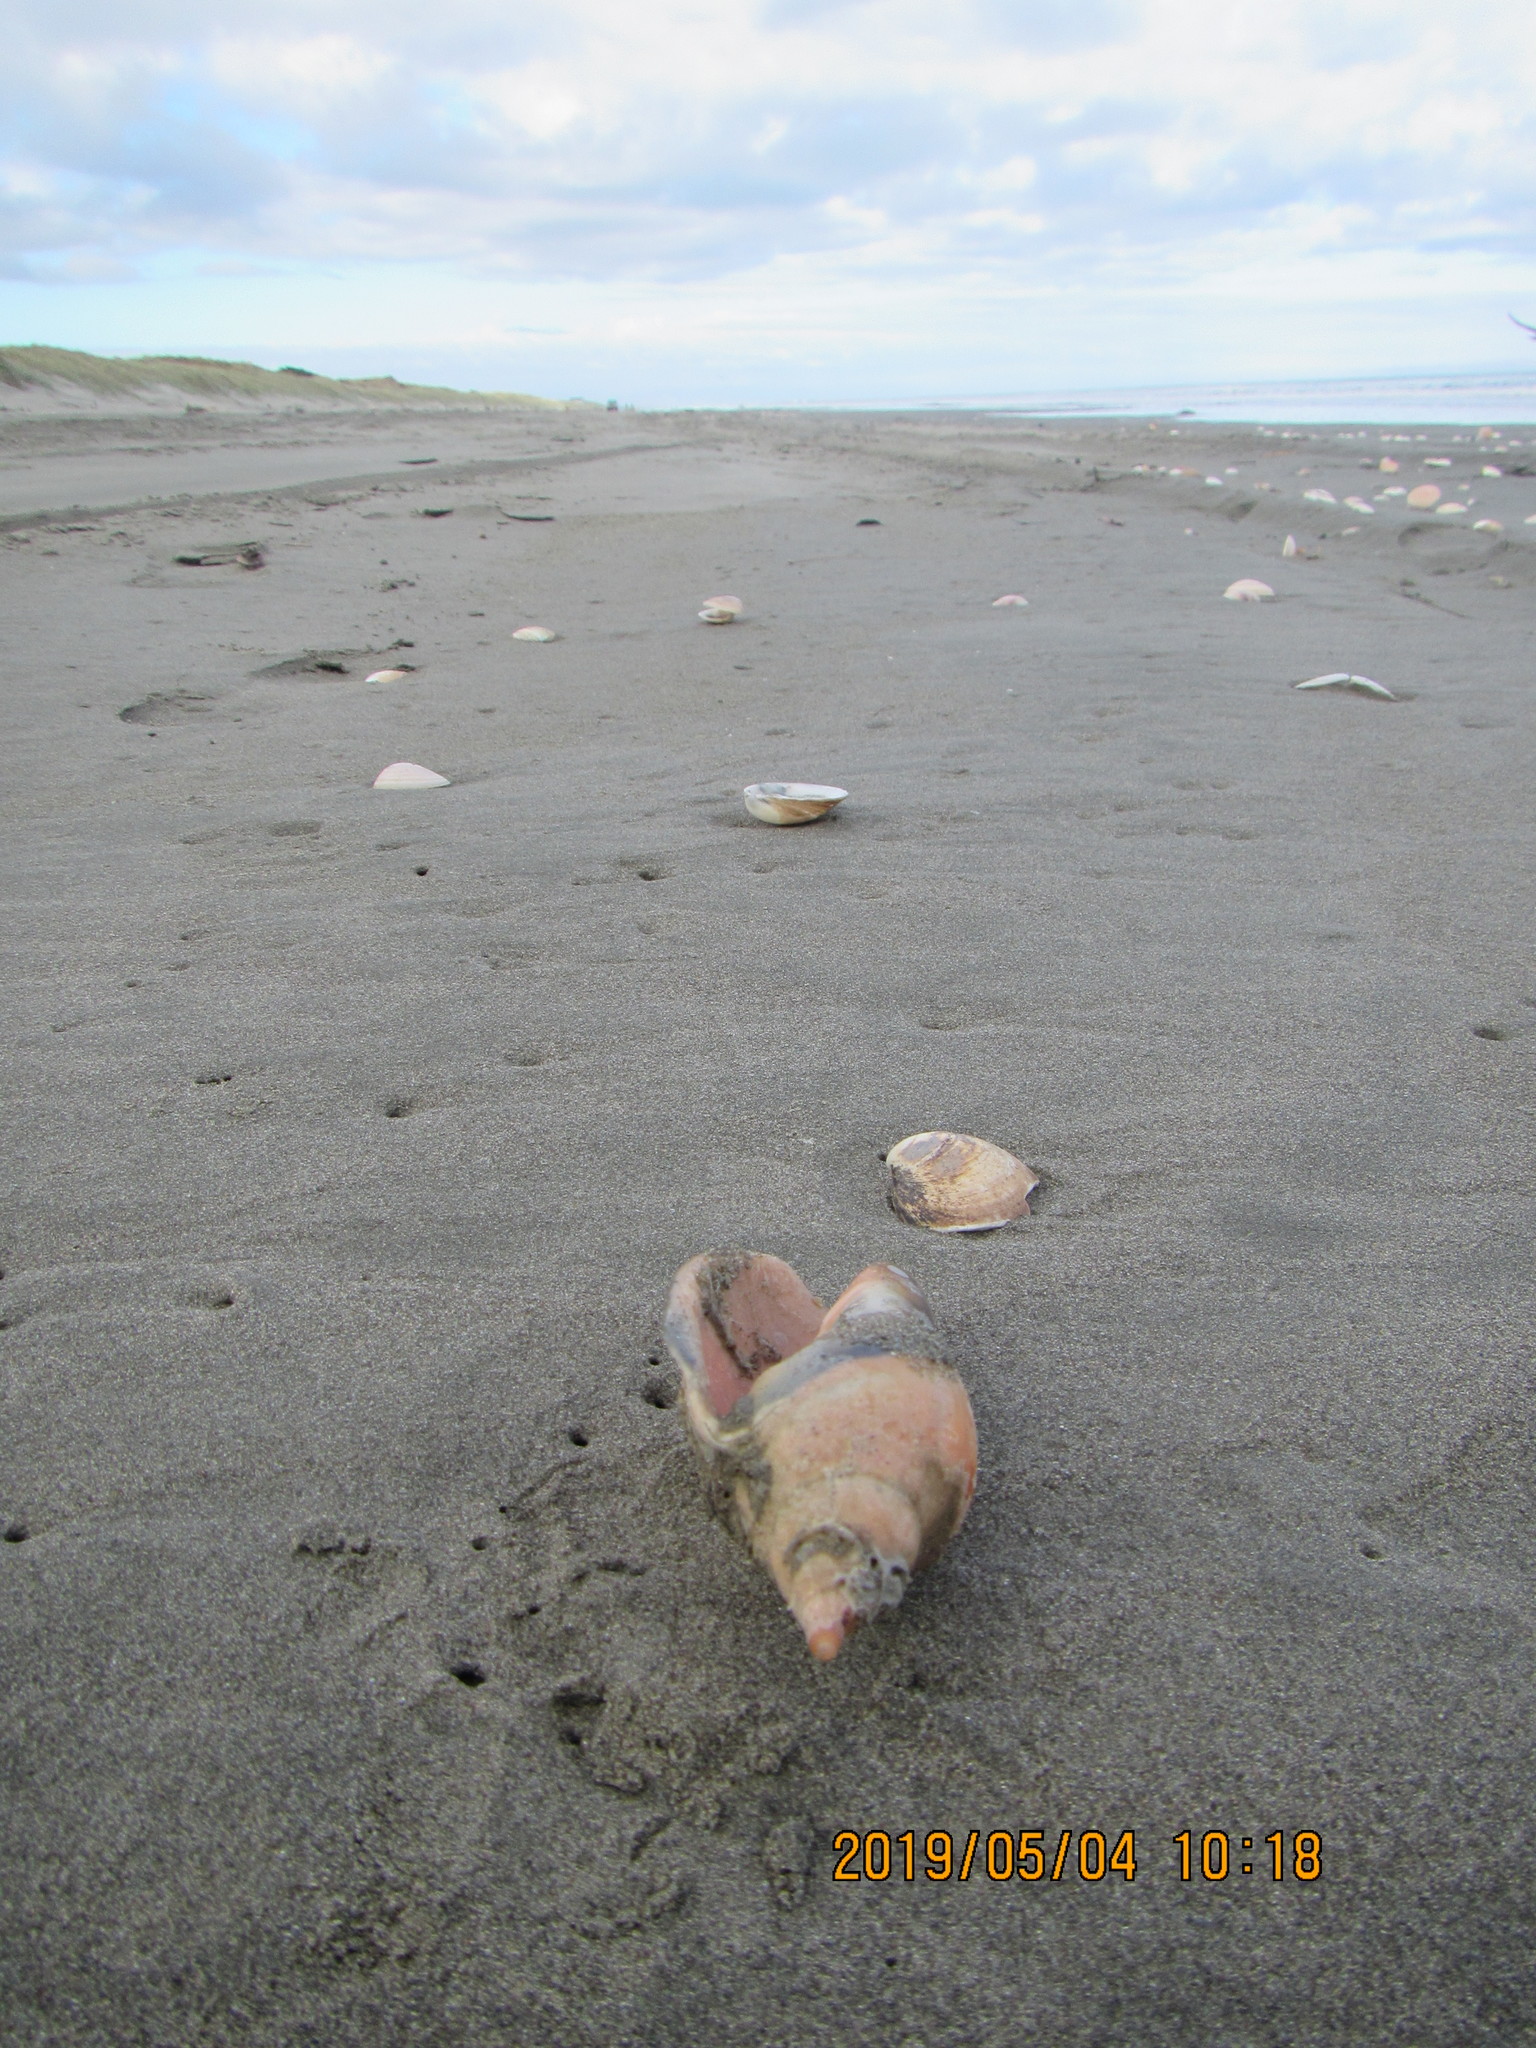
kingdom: Animalia
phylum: Mollusca
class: Gastropoda
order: Neogastropoda
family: Volutidae
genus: Alcithoe
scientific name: Alcithoe arabica
